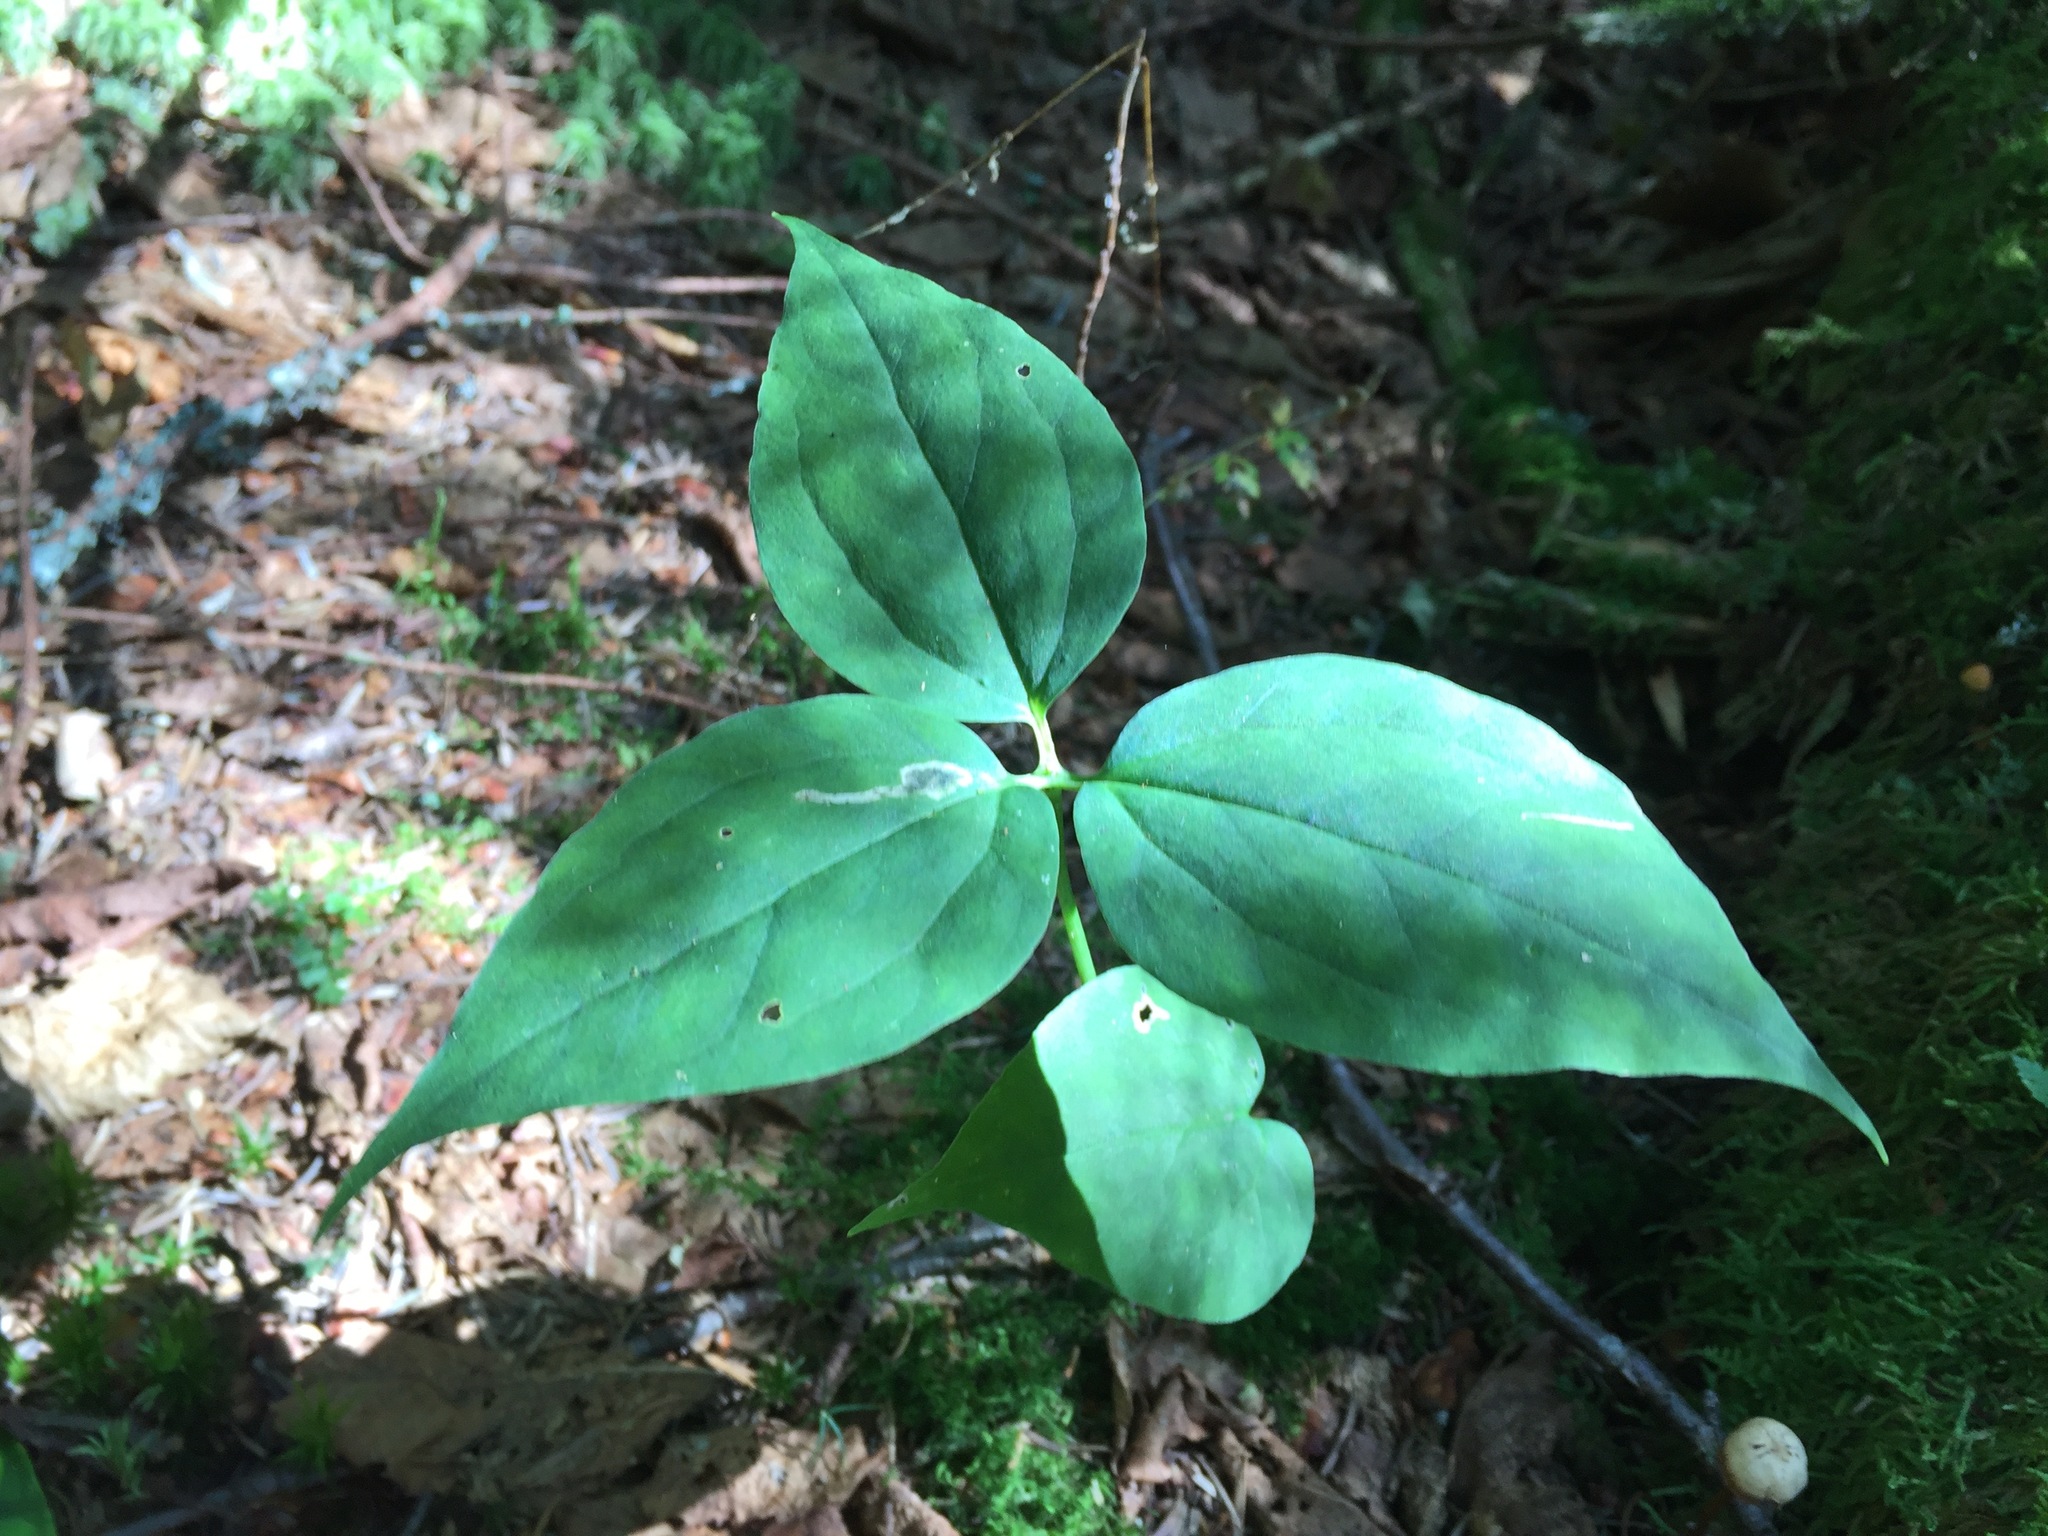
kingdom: Plantae
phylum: Tracheophyta
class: Liliopsida
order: Liliales
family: Melanthiaceae
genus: Trillium
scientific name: Trillium undulatum
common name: Paint trillium
